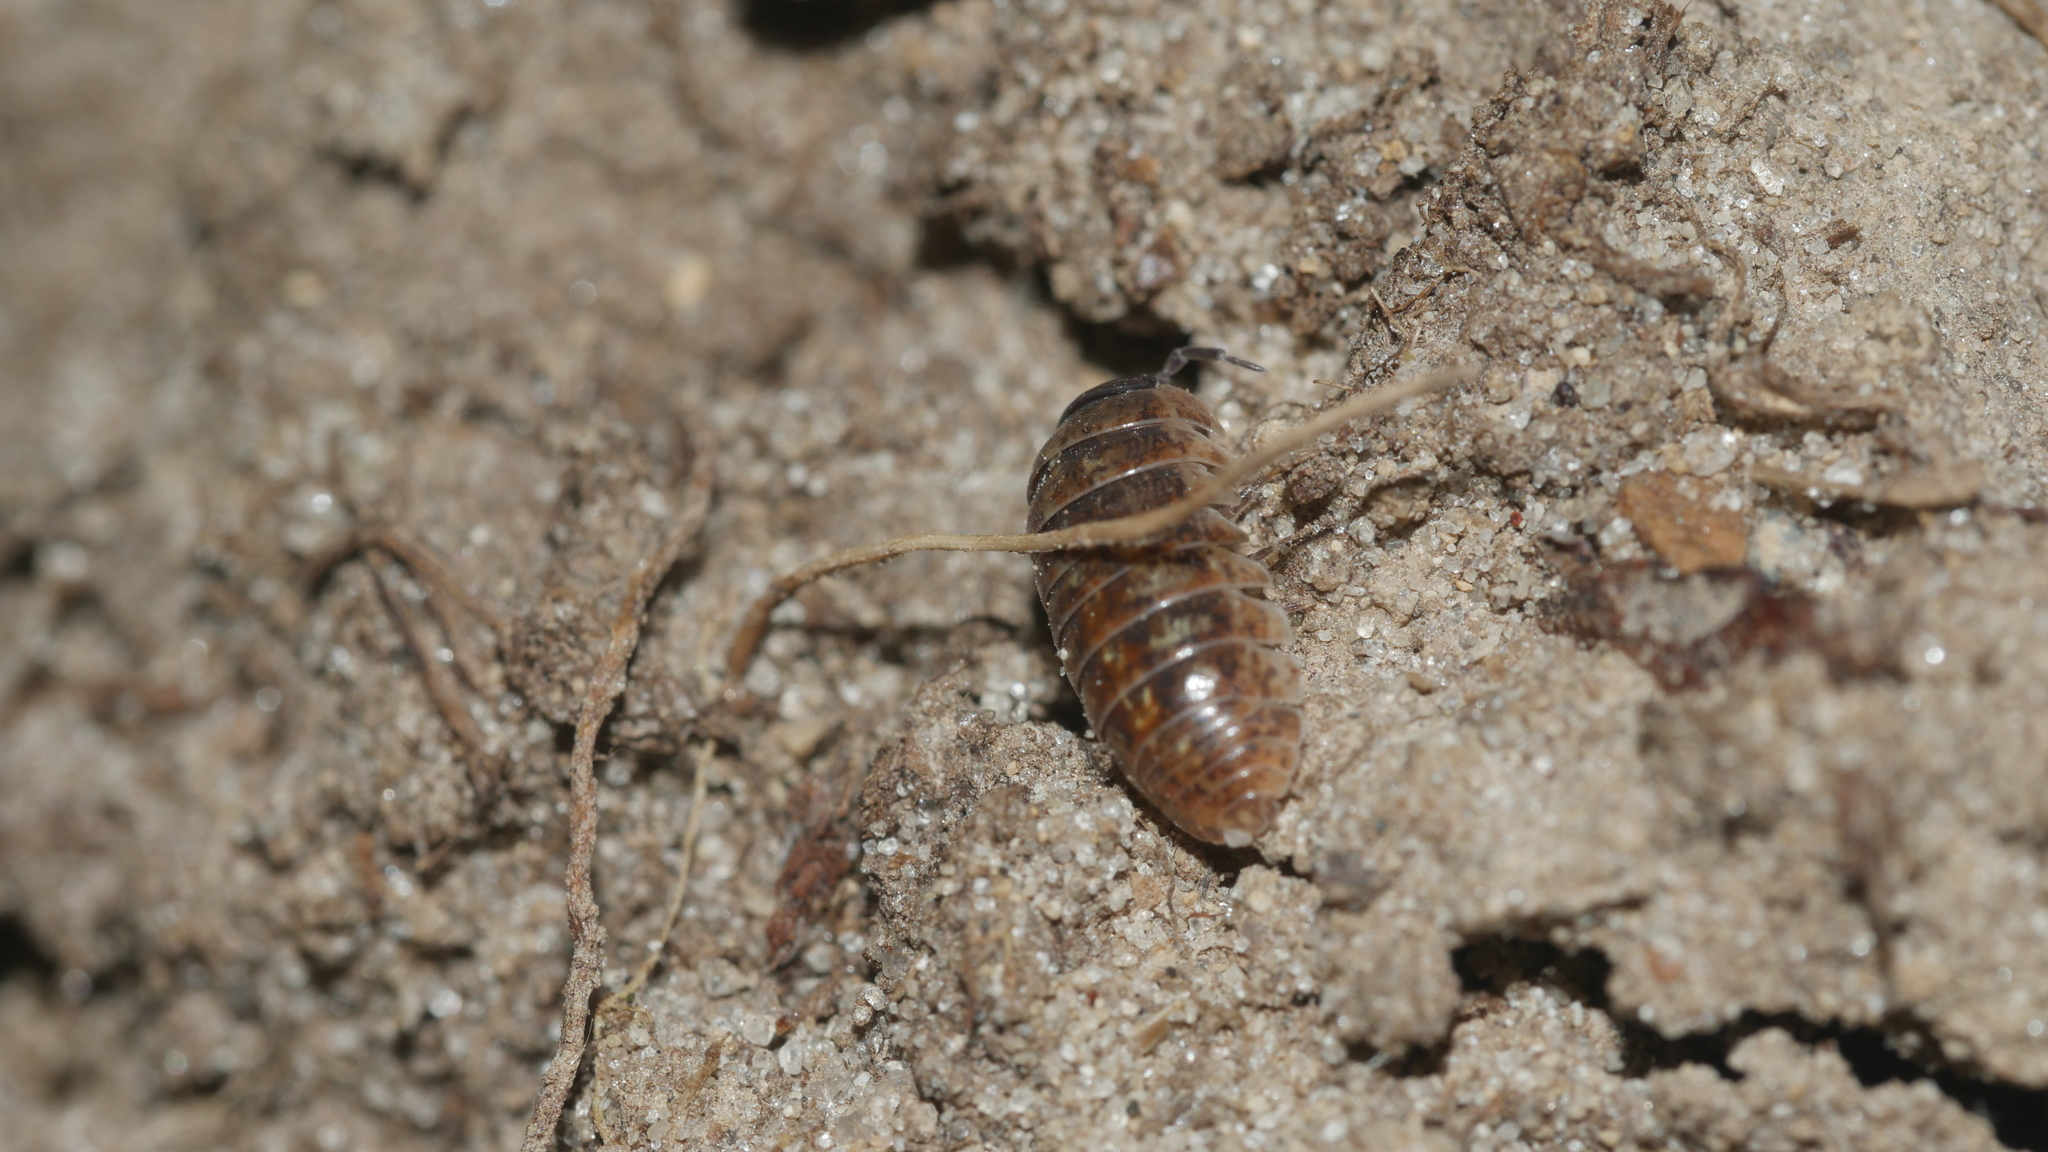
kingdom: Animalia
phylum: Arthropoda
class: Malacostraca
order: Isopoda
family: Armadillidiidae
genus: Armadillidium
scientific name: Armadillidium vulgare
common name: Common pill woodlouse
